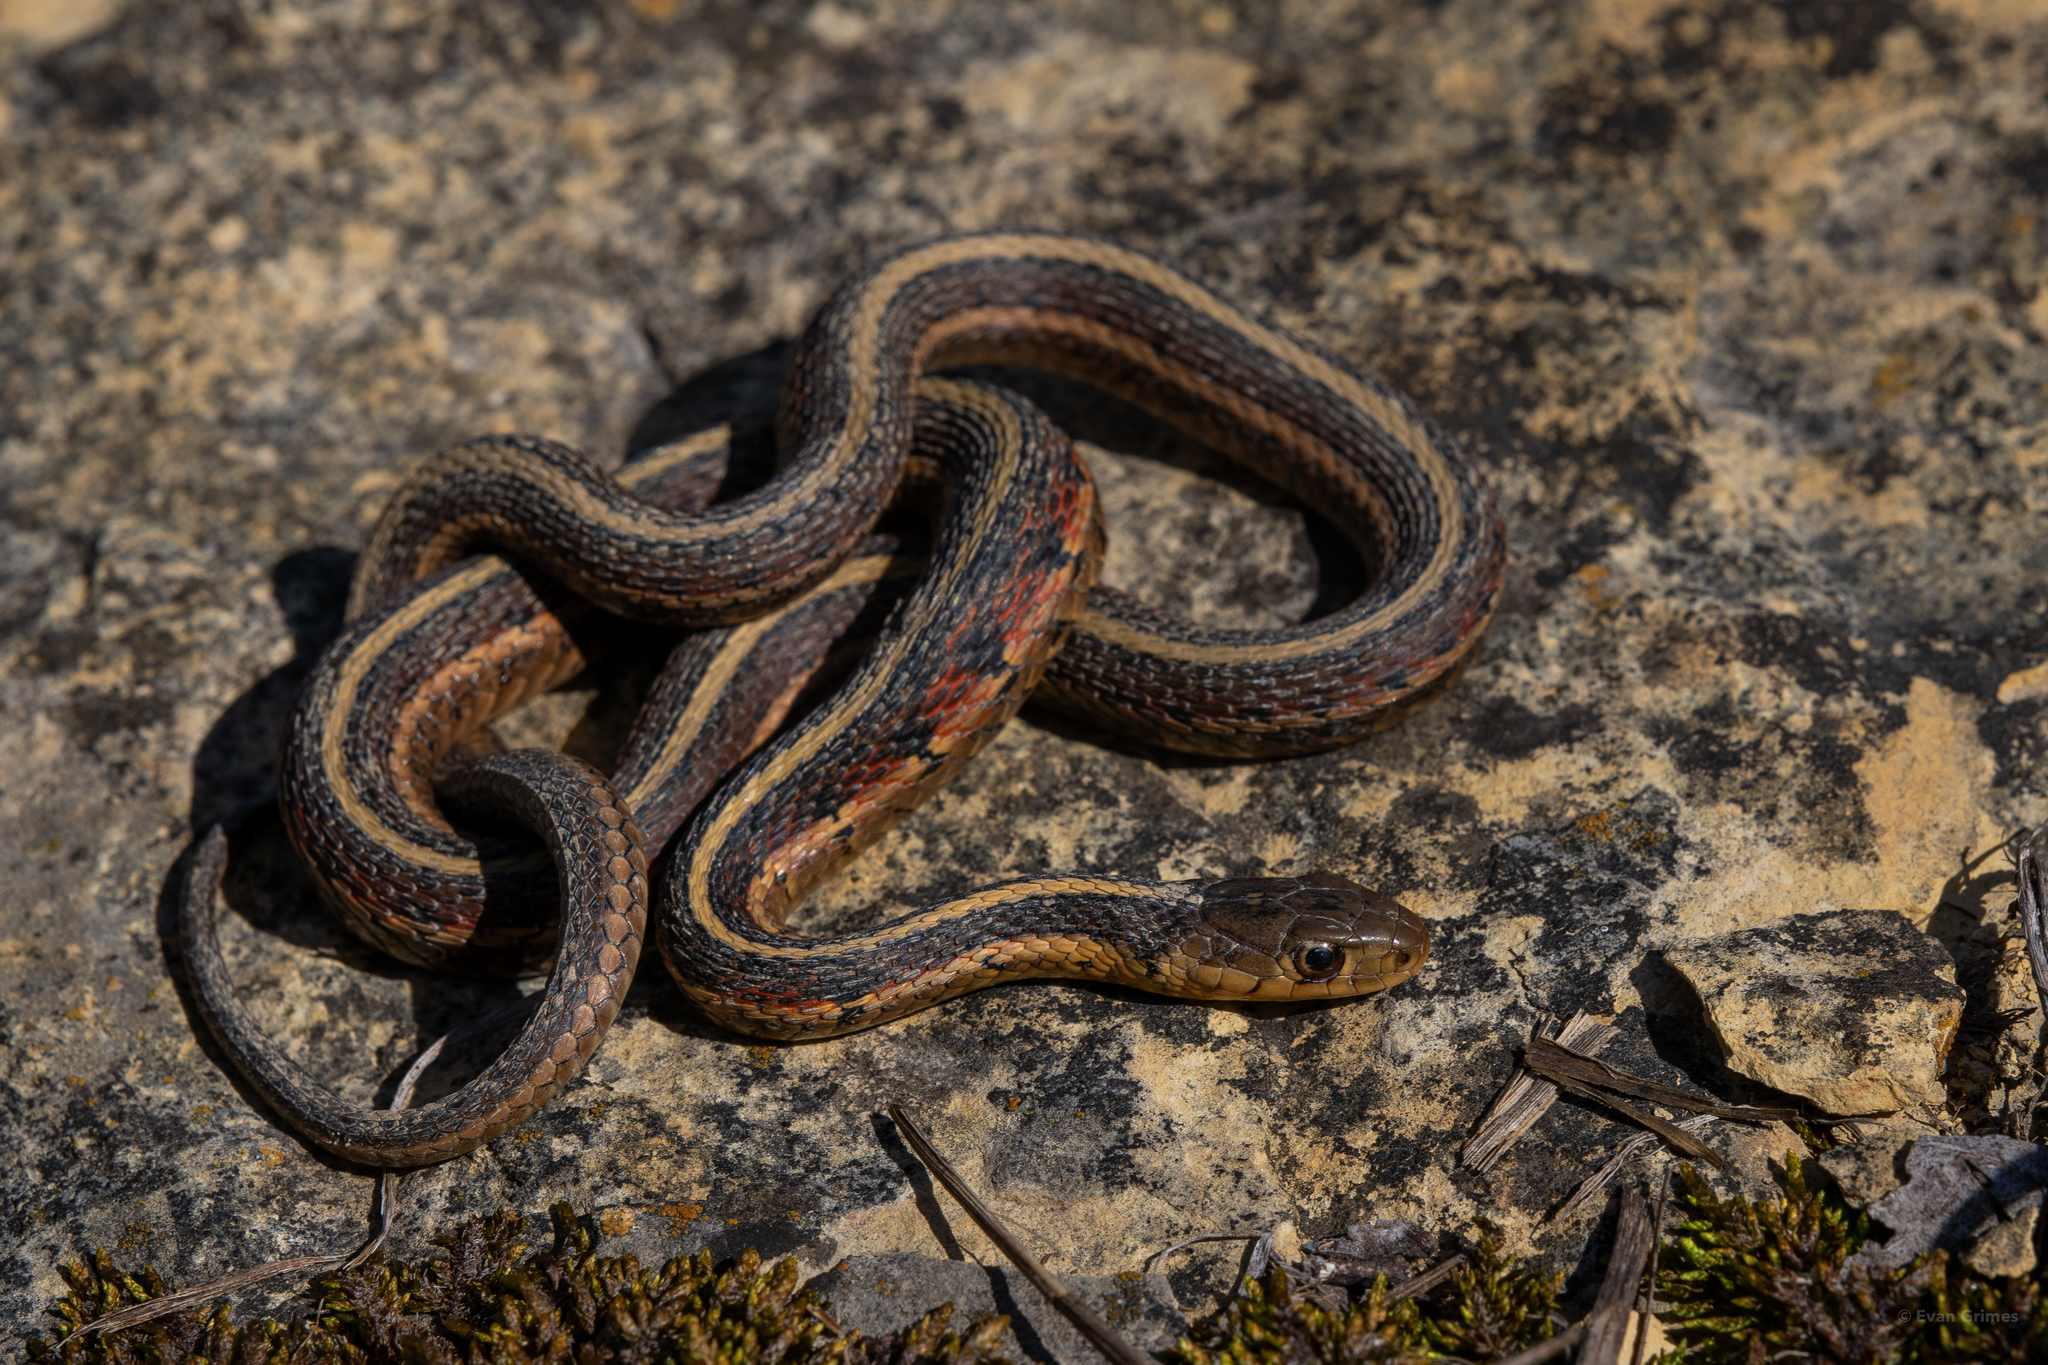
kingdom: Animalia
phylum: Chordata
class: Squamata
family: Colubridae
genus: Thamnophis
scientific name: Thamnophis sirtalis
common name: Common garter snake
